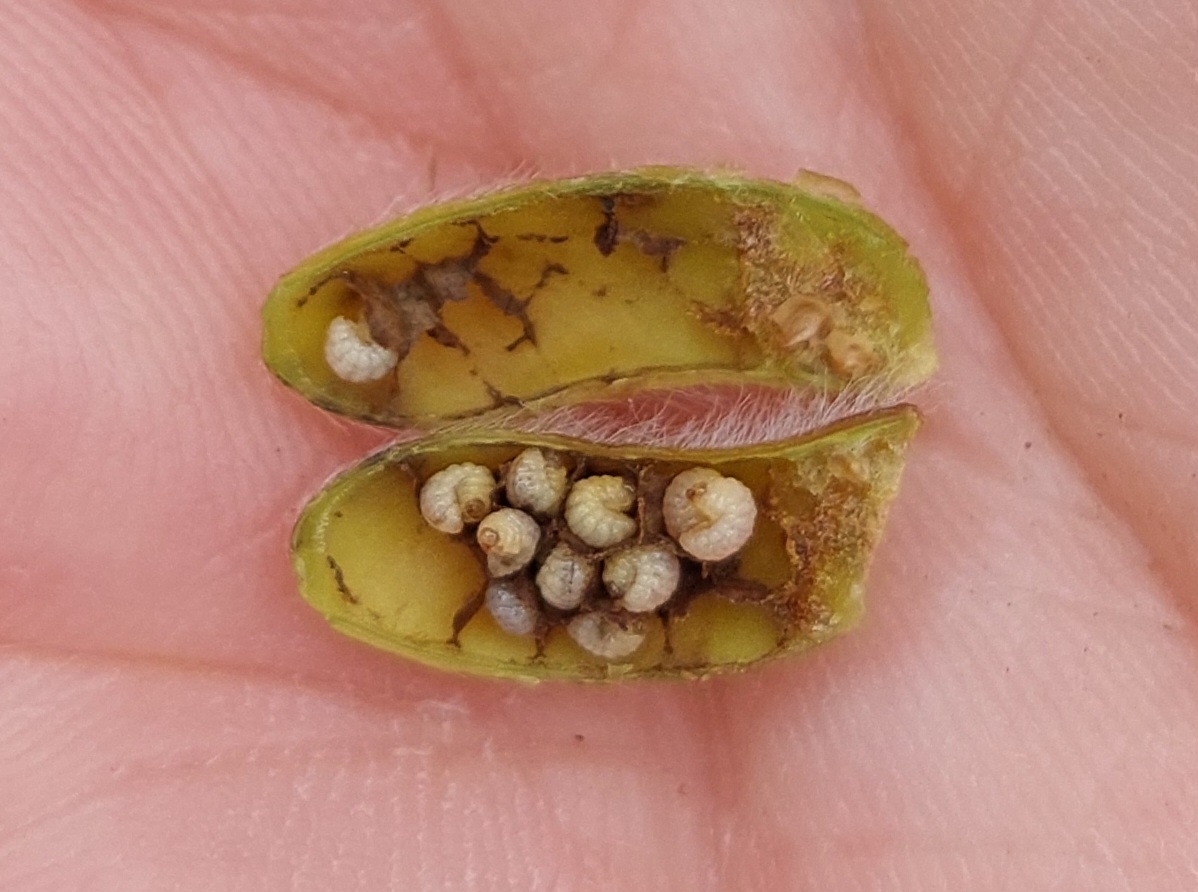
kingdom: Animalia
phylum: Arthropoda
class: Insecta
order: Coleoptera
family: Brentidae
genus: Exapion
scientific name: Exapion ulicis
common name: Gorse seed weevil
